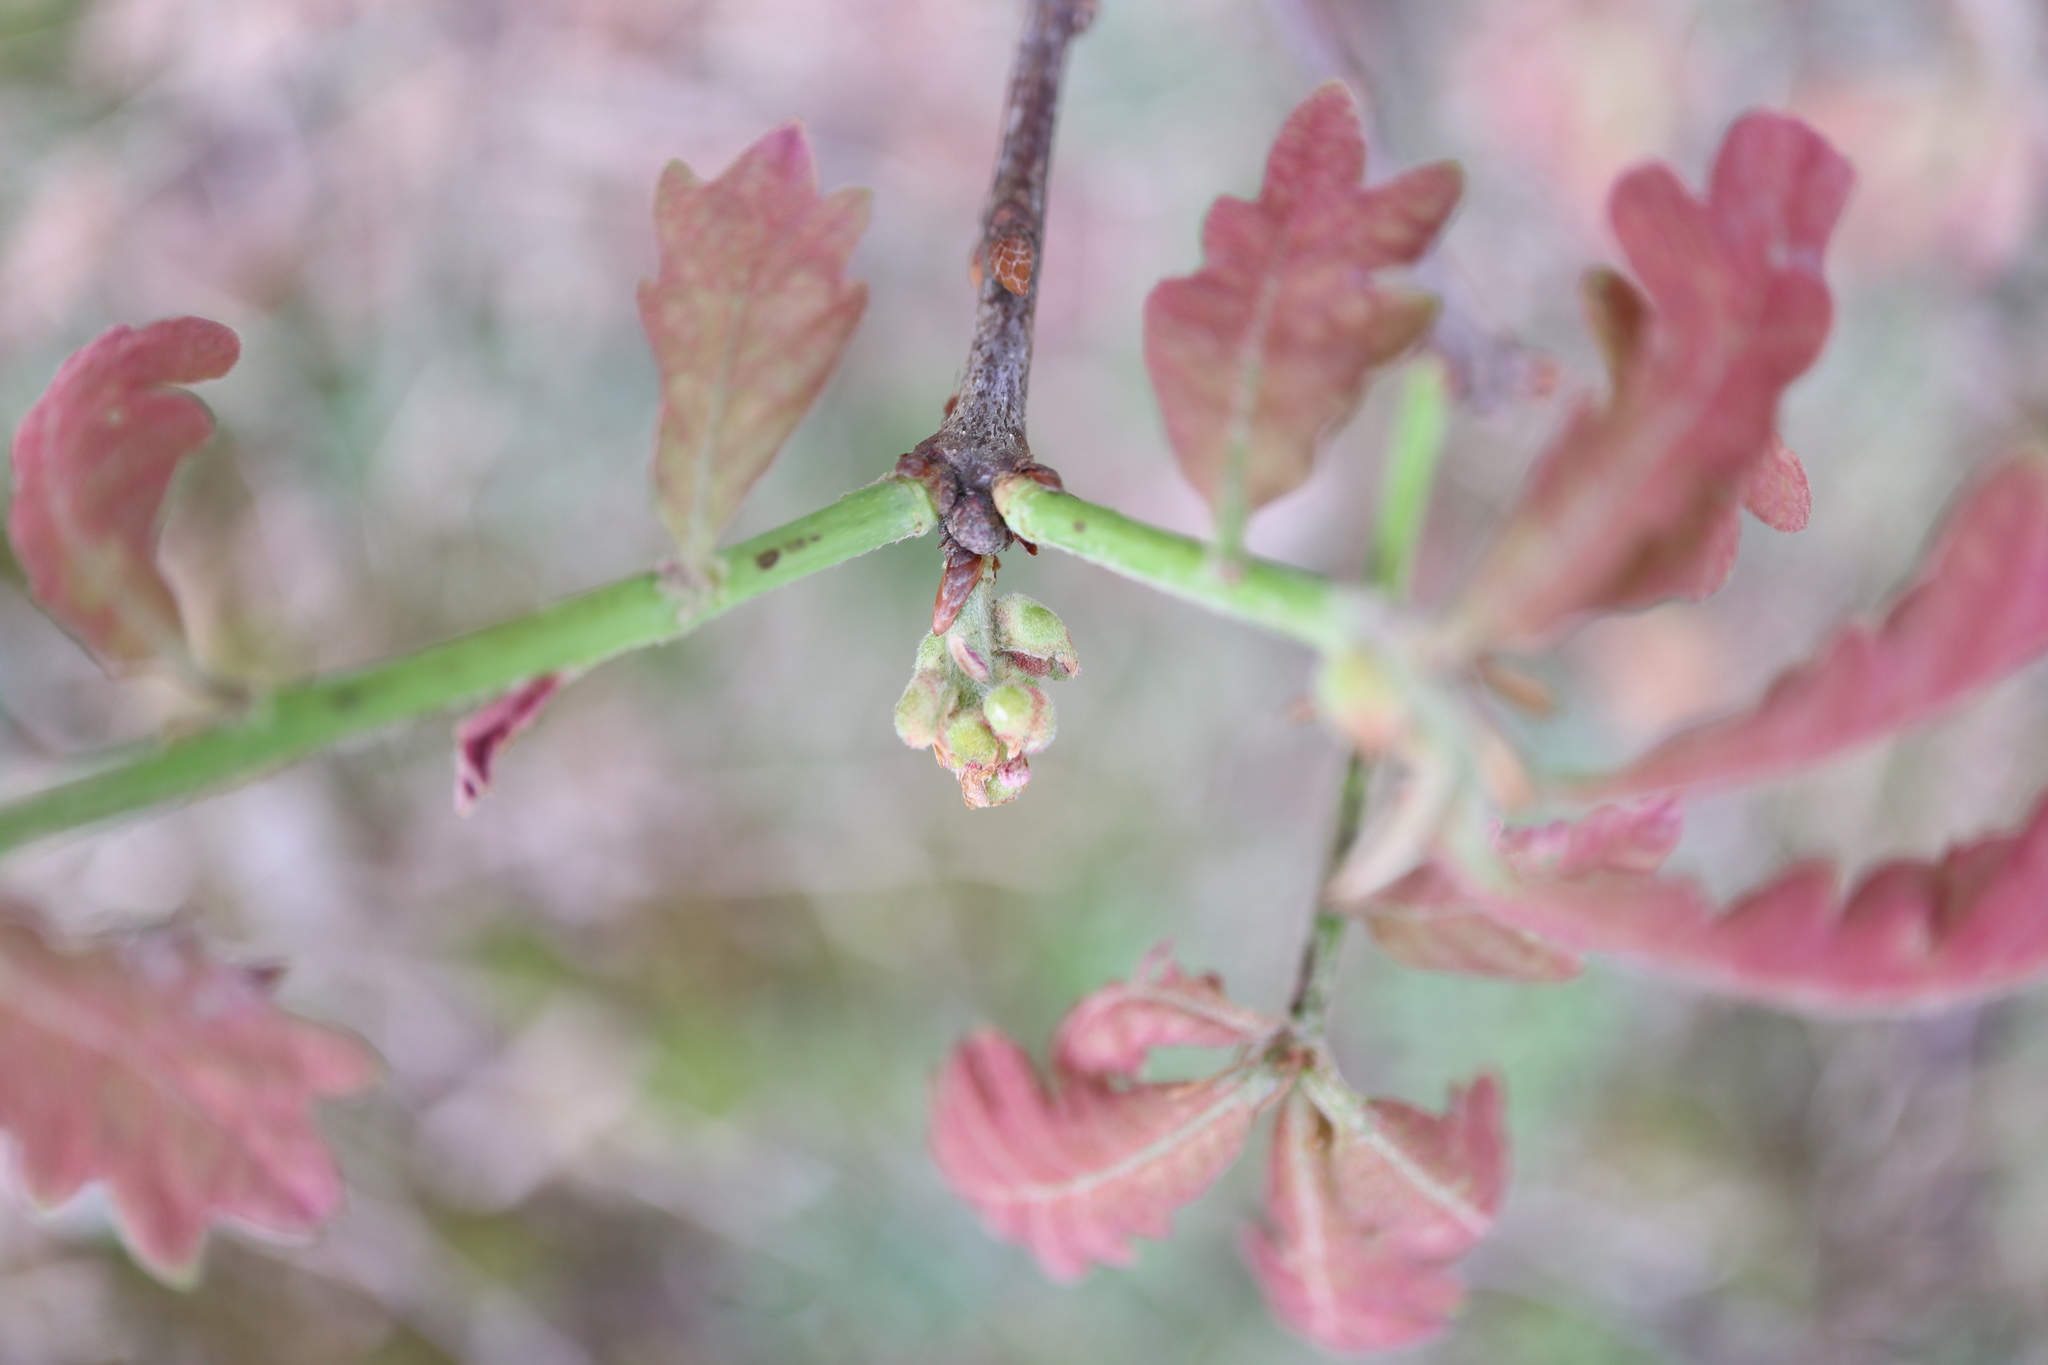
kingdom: Animalia
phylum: Arthropoda
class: Insecta
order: Hymenoptera
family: Cynipidae
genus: Neuroterus
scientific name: Neuroterus minutulus
